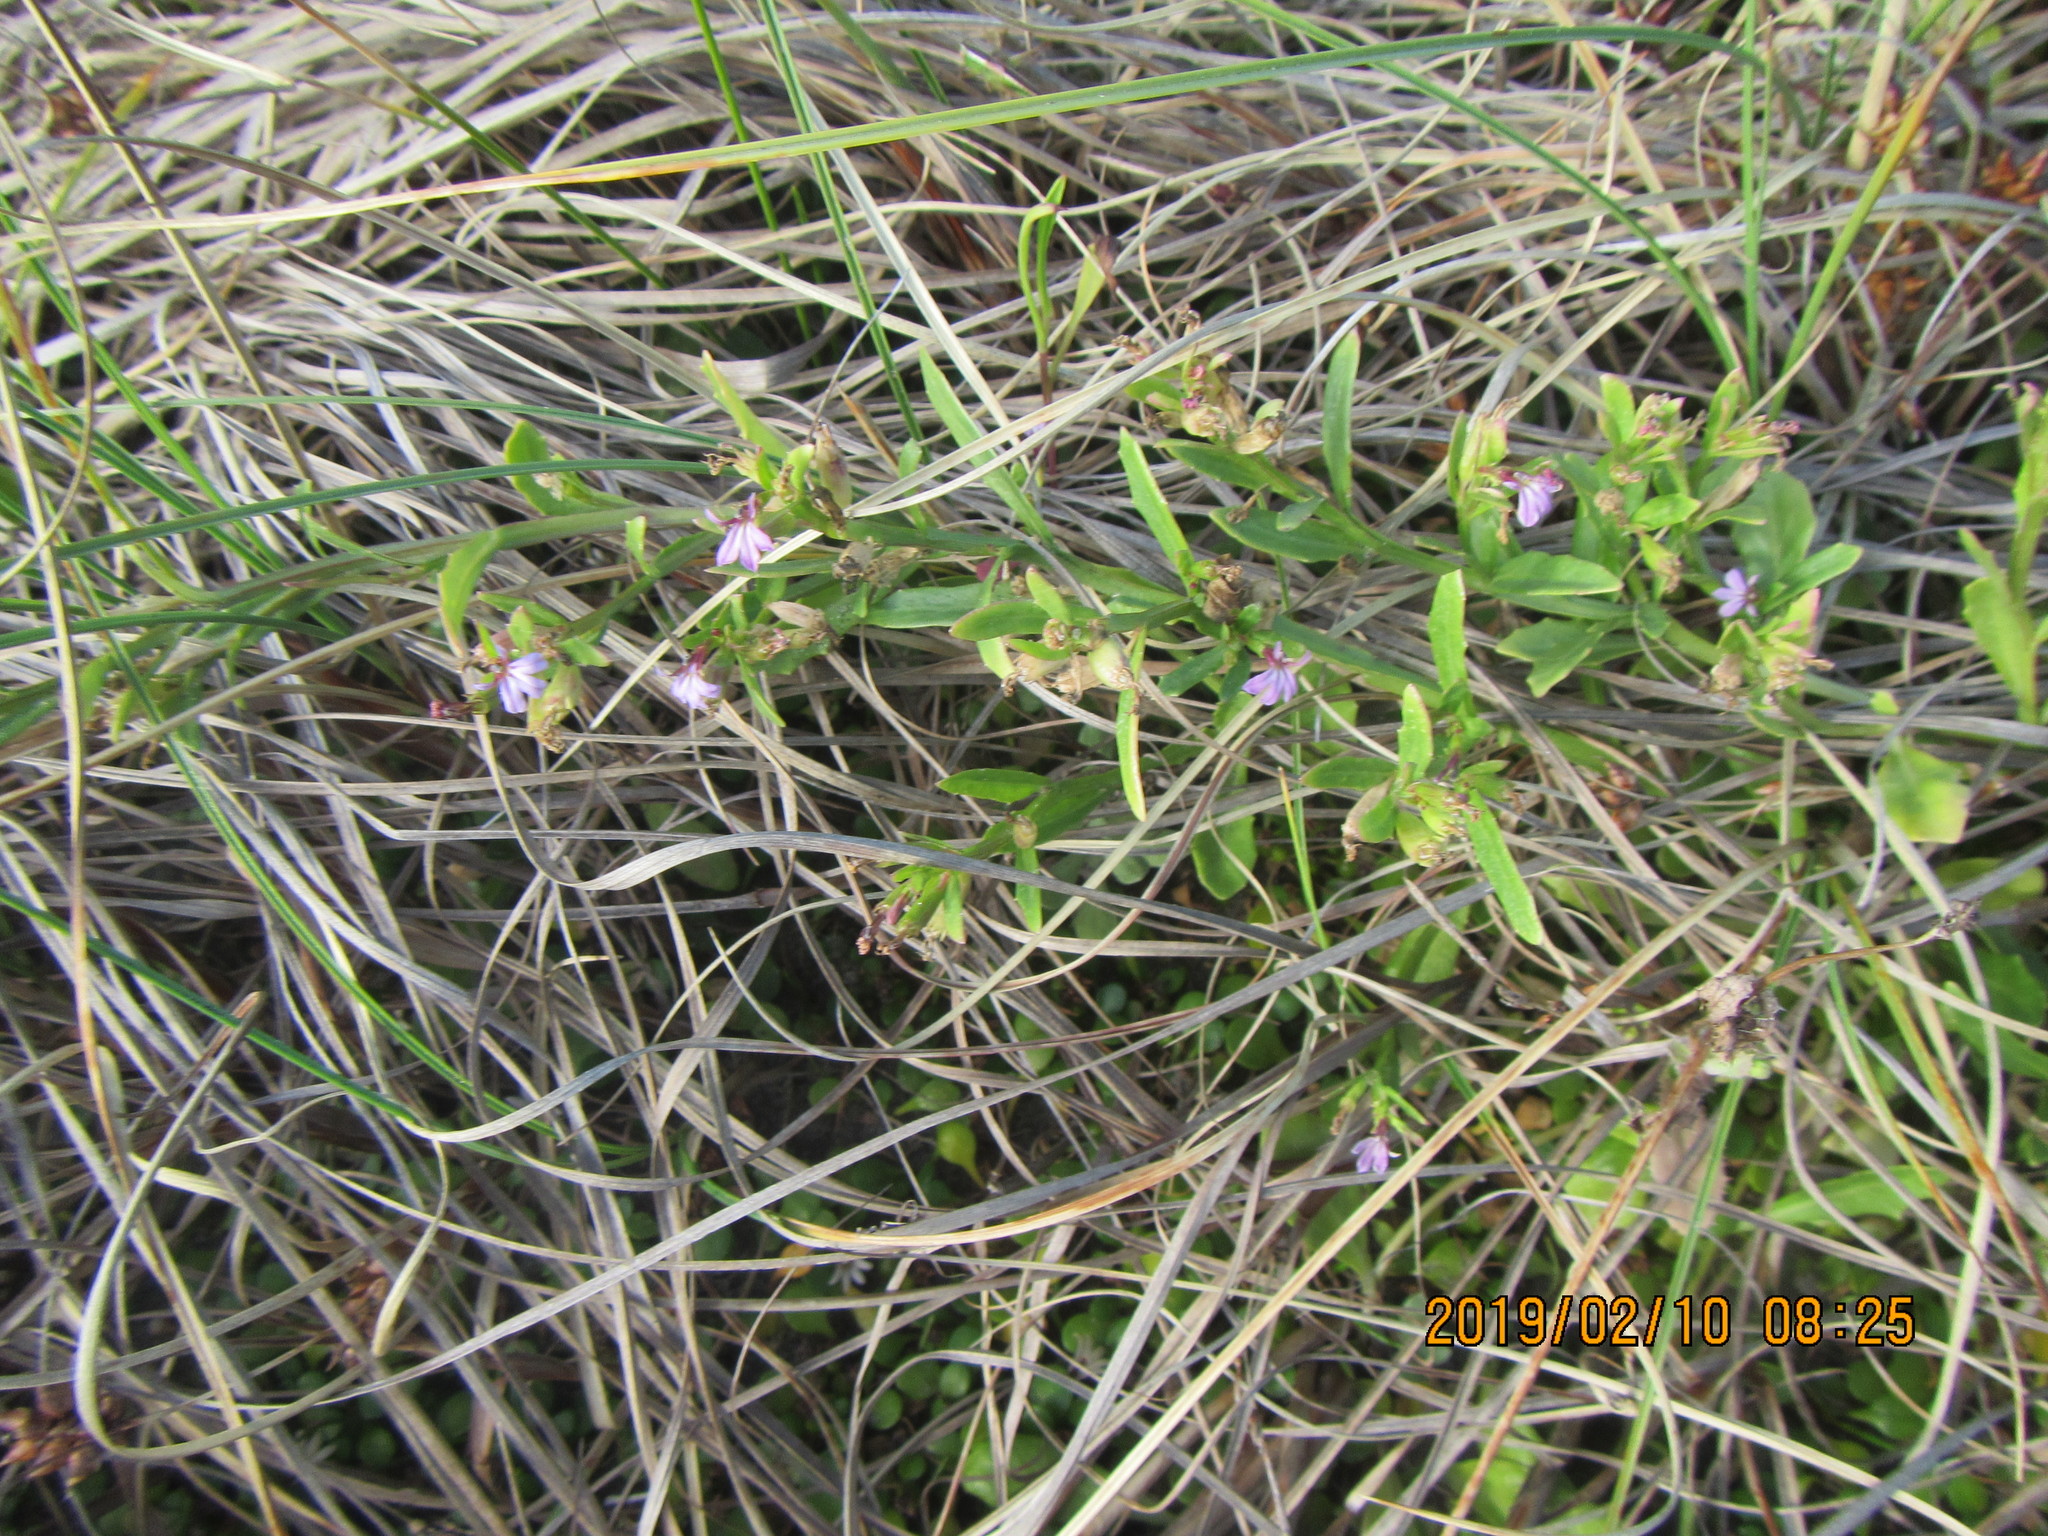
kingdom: Plantae
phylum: Tracheophyta
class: Magnoliopsida
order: Asterales
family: Campanulaceae
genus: Lobelia
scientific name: Lobelia anceps
